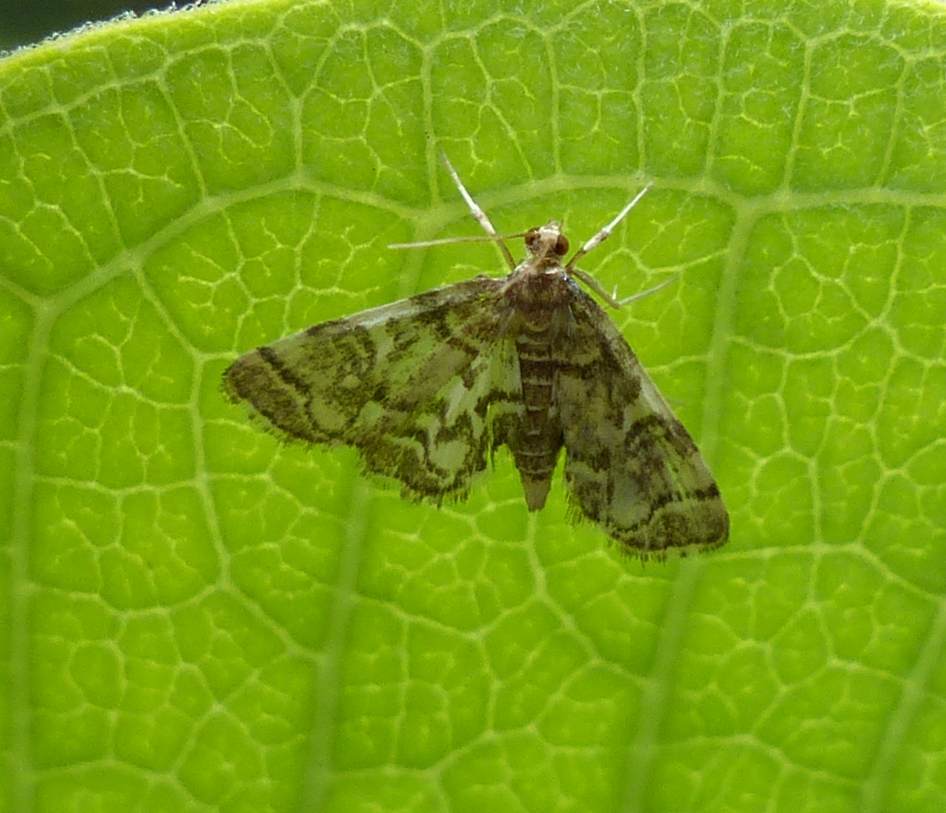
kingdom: Animalia
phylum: Arthropoda
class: Insecta
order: Lepidoptera
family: Crambidae
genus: Anageshna
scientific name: Anageshna primordialis
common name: Yellow-spotted webworm moth
